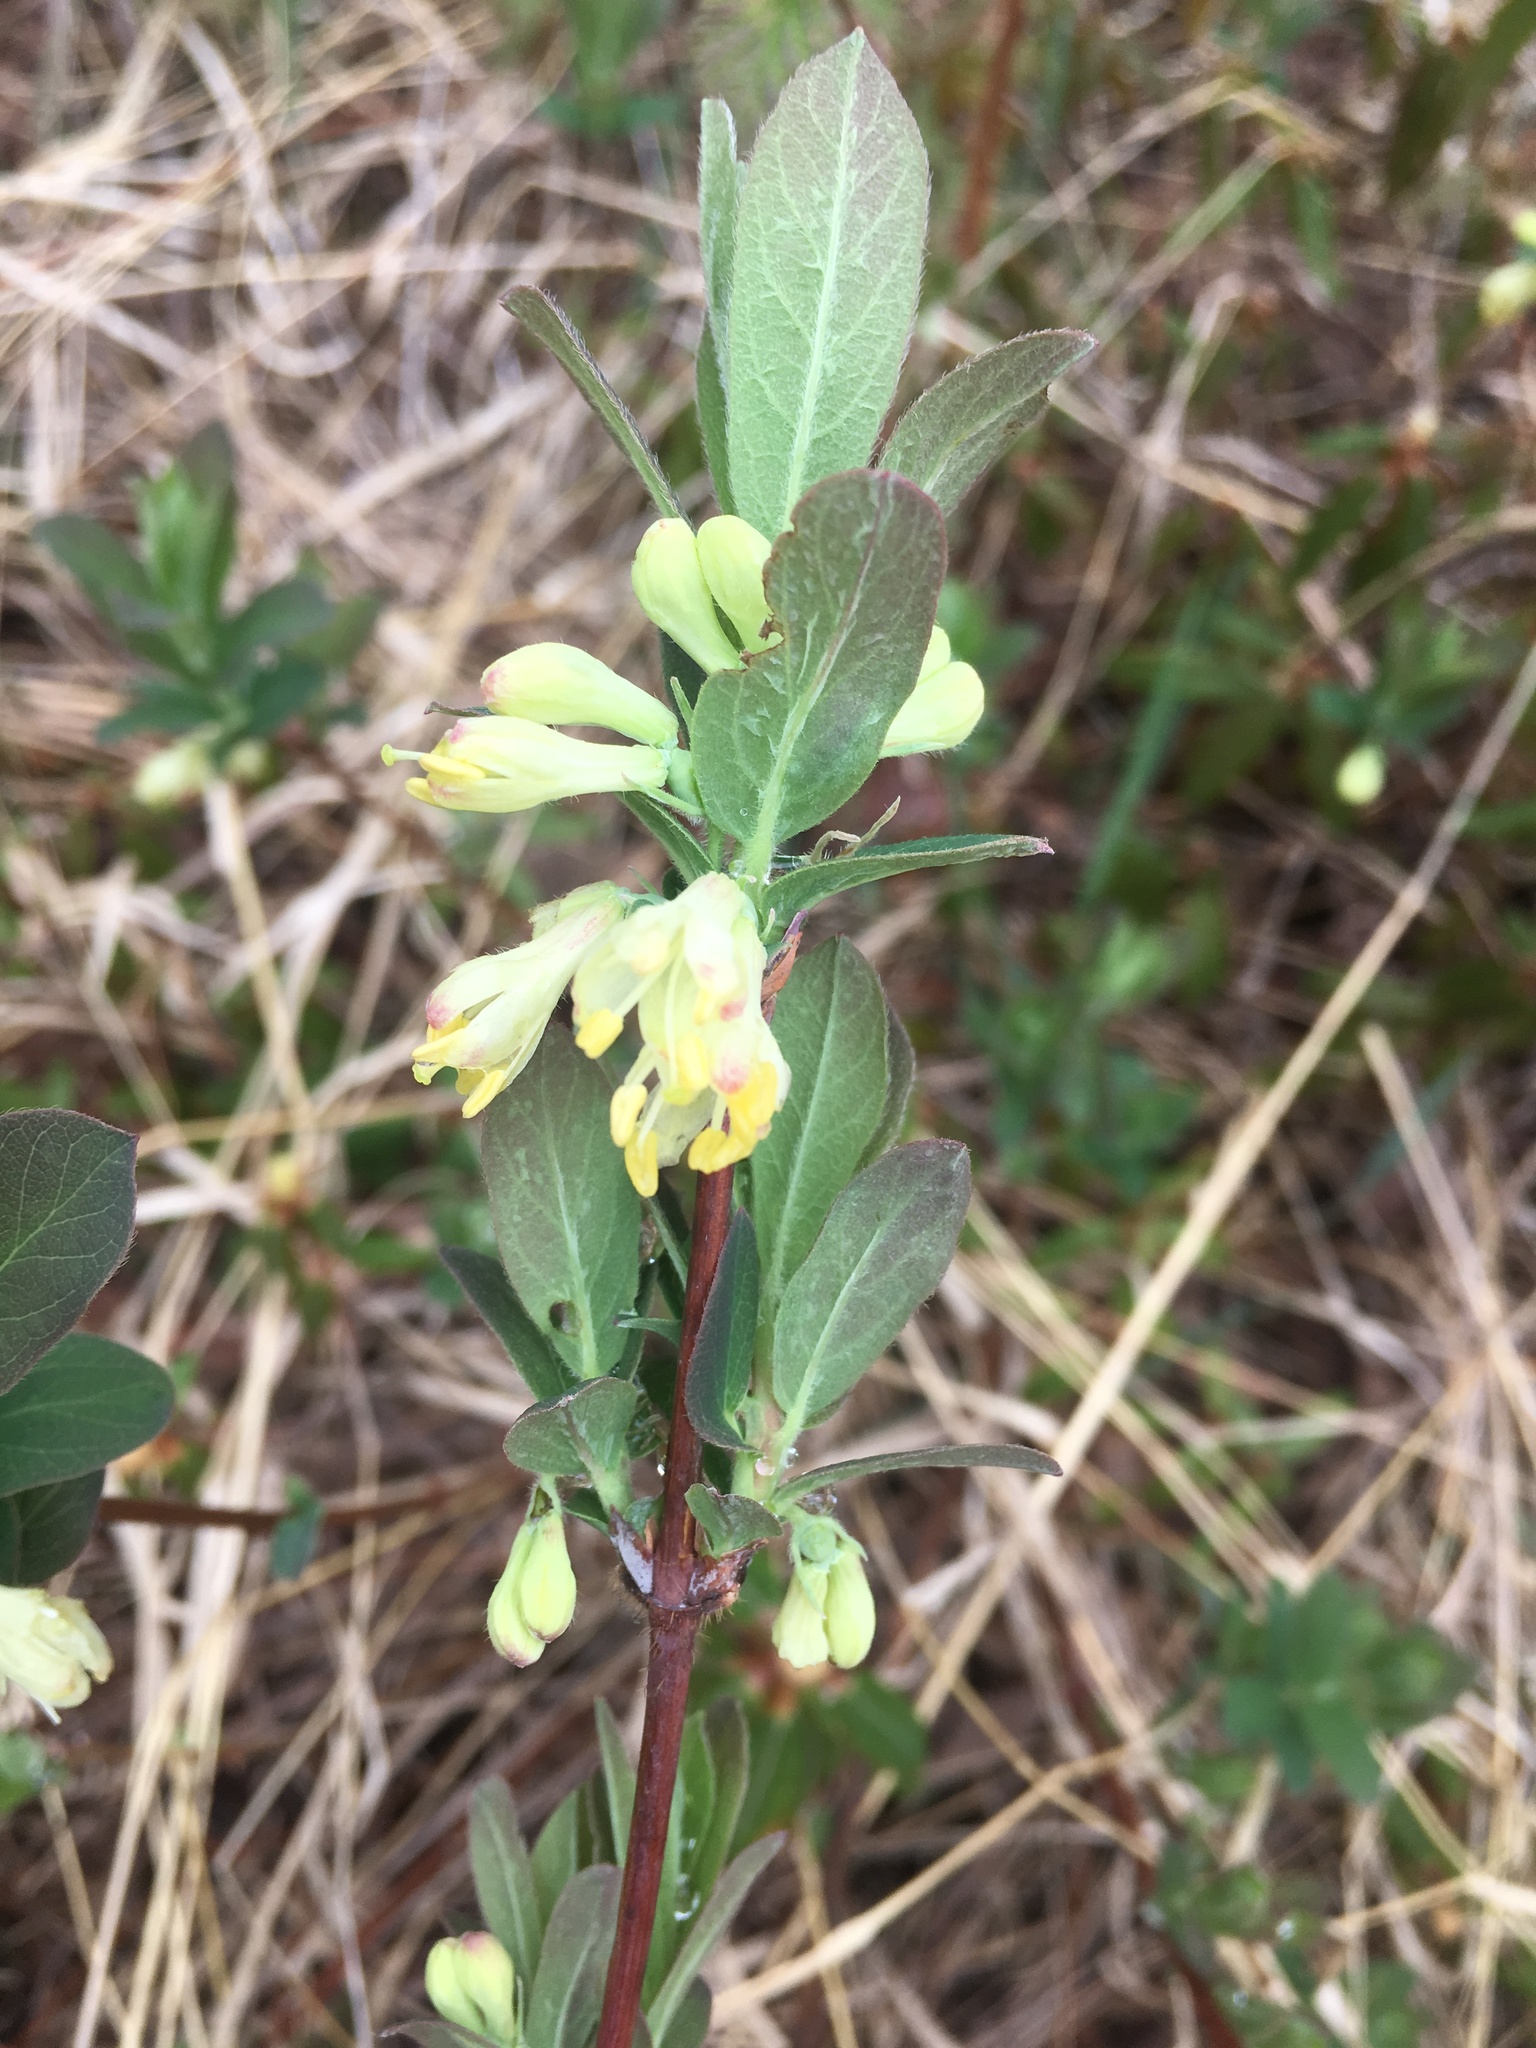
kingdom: Plantae
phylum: Tracheophyta
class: Magnoliopsida
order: Dipsacales
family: Caprifoliaceae
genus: Lonicera
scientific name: Lonicera villosa
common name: Mountain fly-honeysuckle
